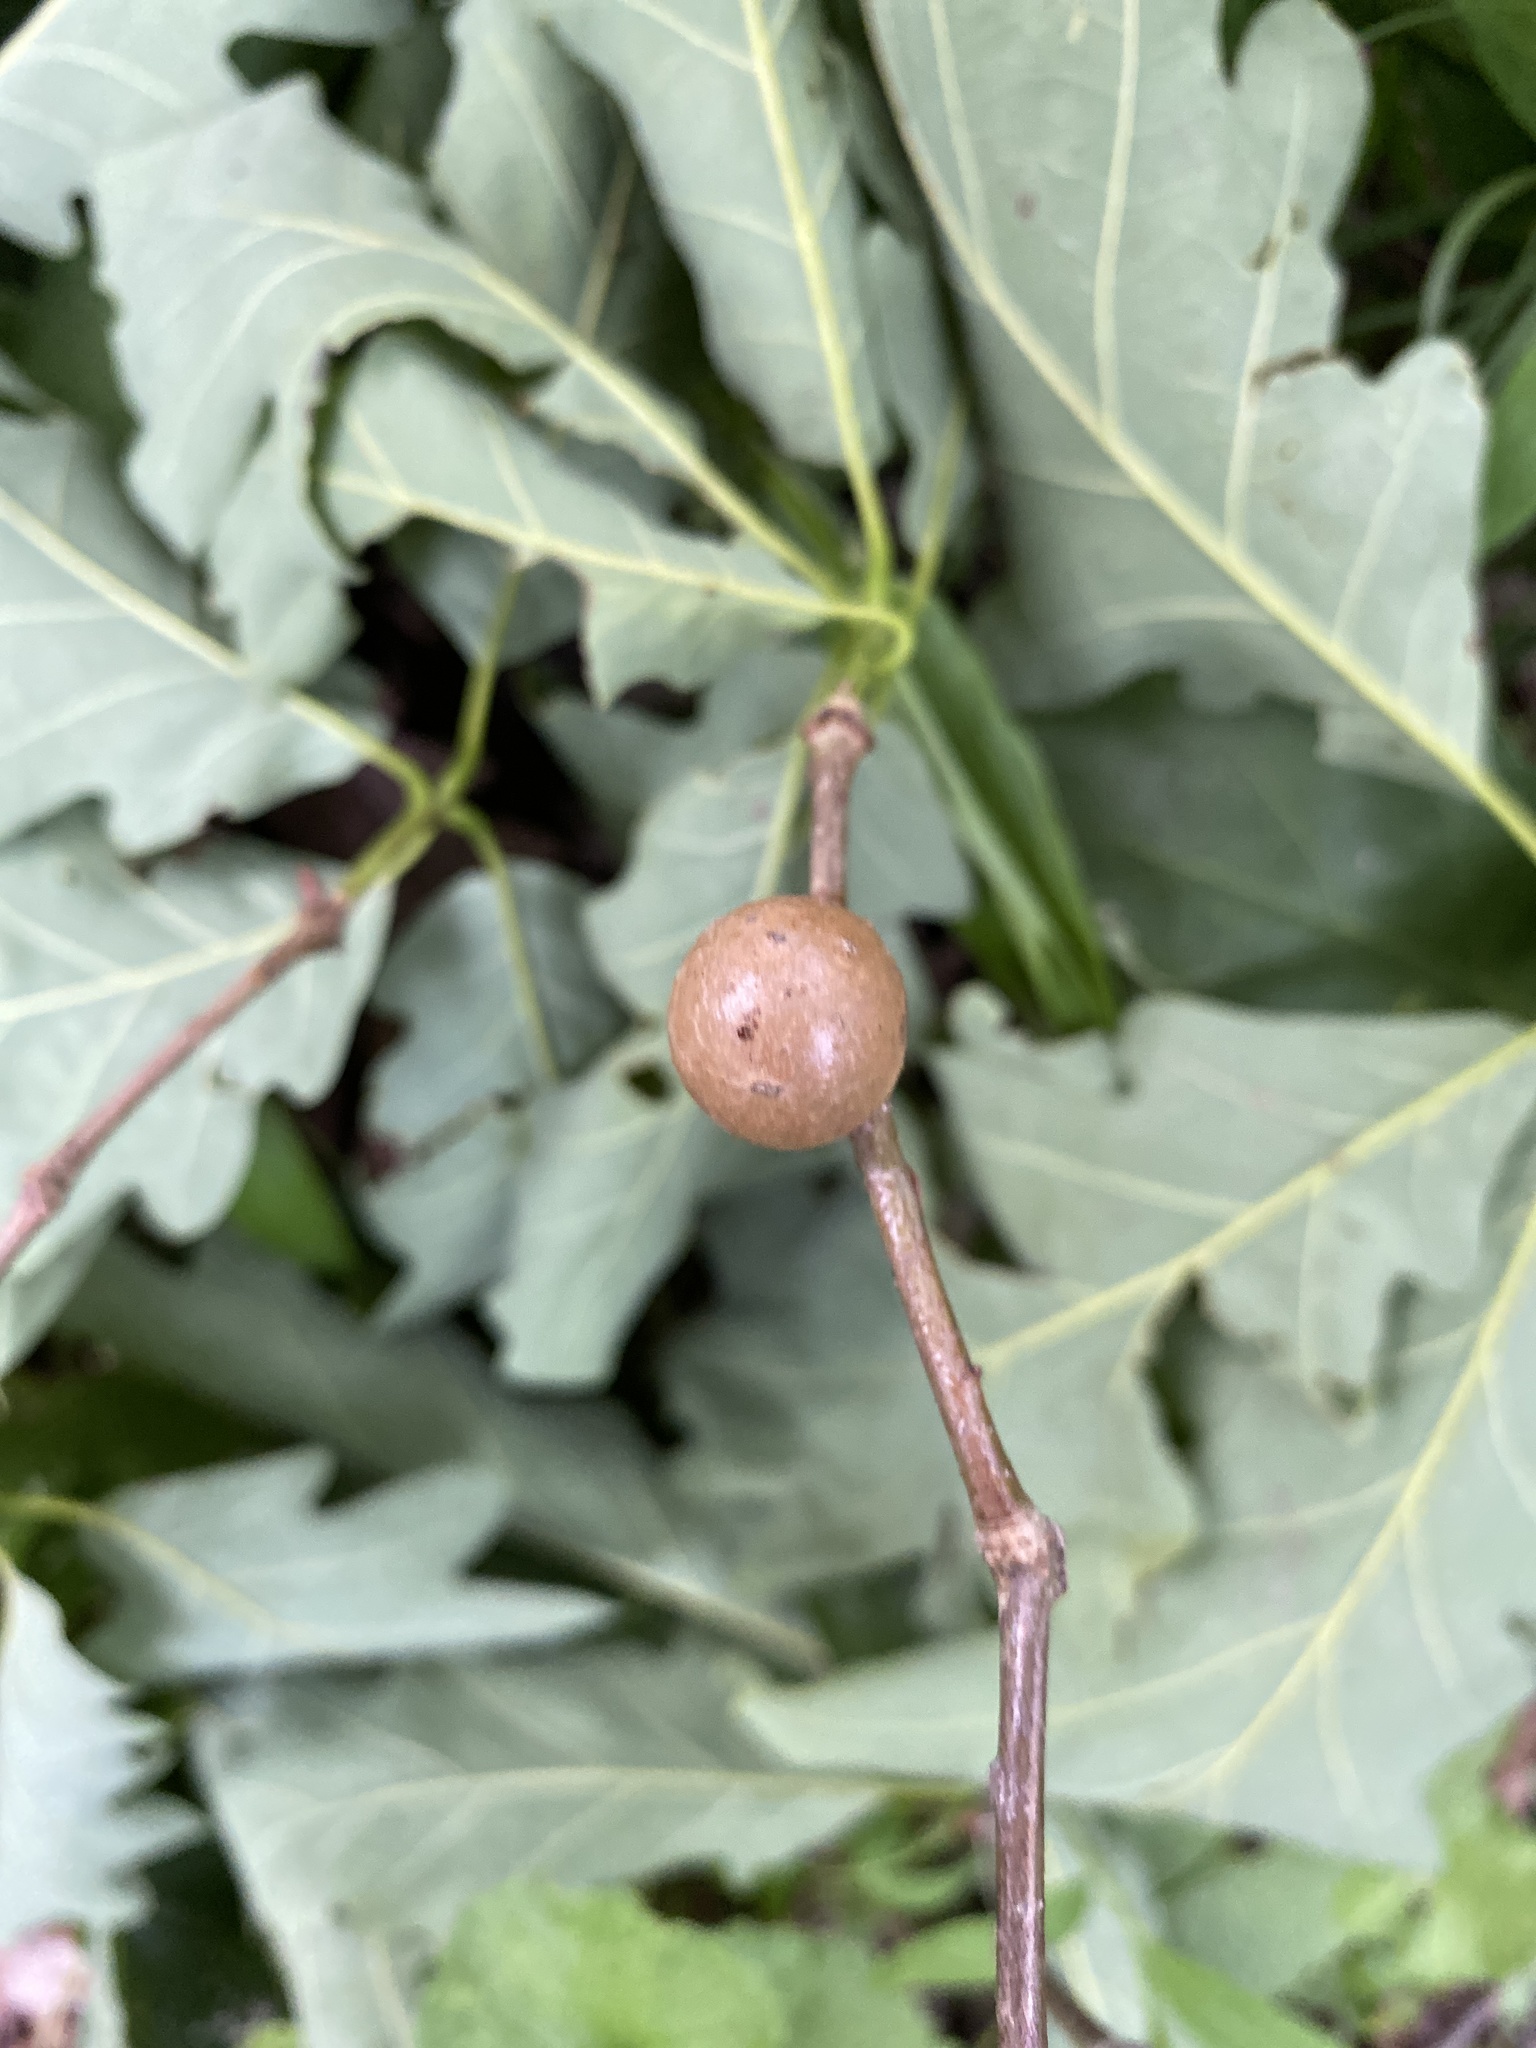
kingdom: Animalia
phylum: Arthropoda
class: Insecta
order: Hymenoptera
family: Cynipidae
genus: Disholcaspis
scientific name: Disholcaspis quercusglobulus
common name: Round bullet gall wasp
